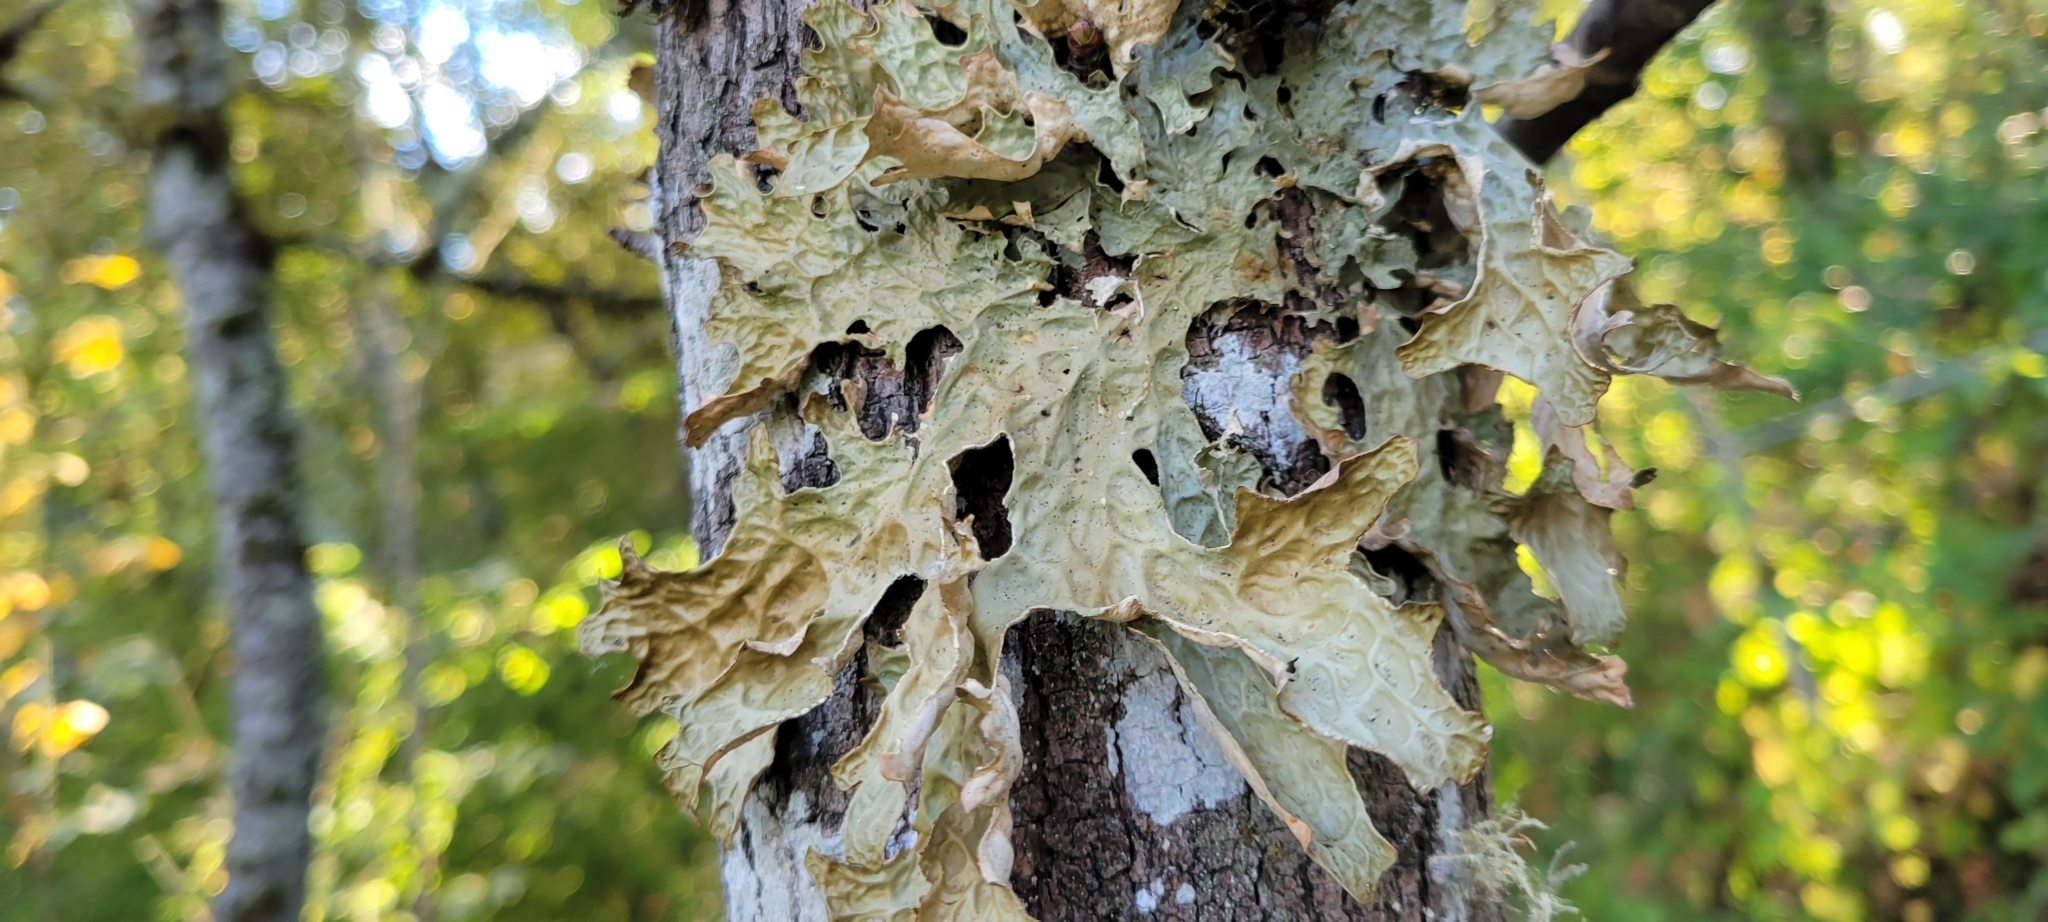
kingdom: Fungi
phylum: Ascomycota
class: Lecanoromycetes
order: Peltigerales
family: Lobariaceae
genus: Lobaria
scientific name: Lobaria pulmonaria
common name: Lungwort
